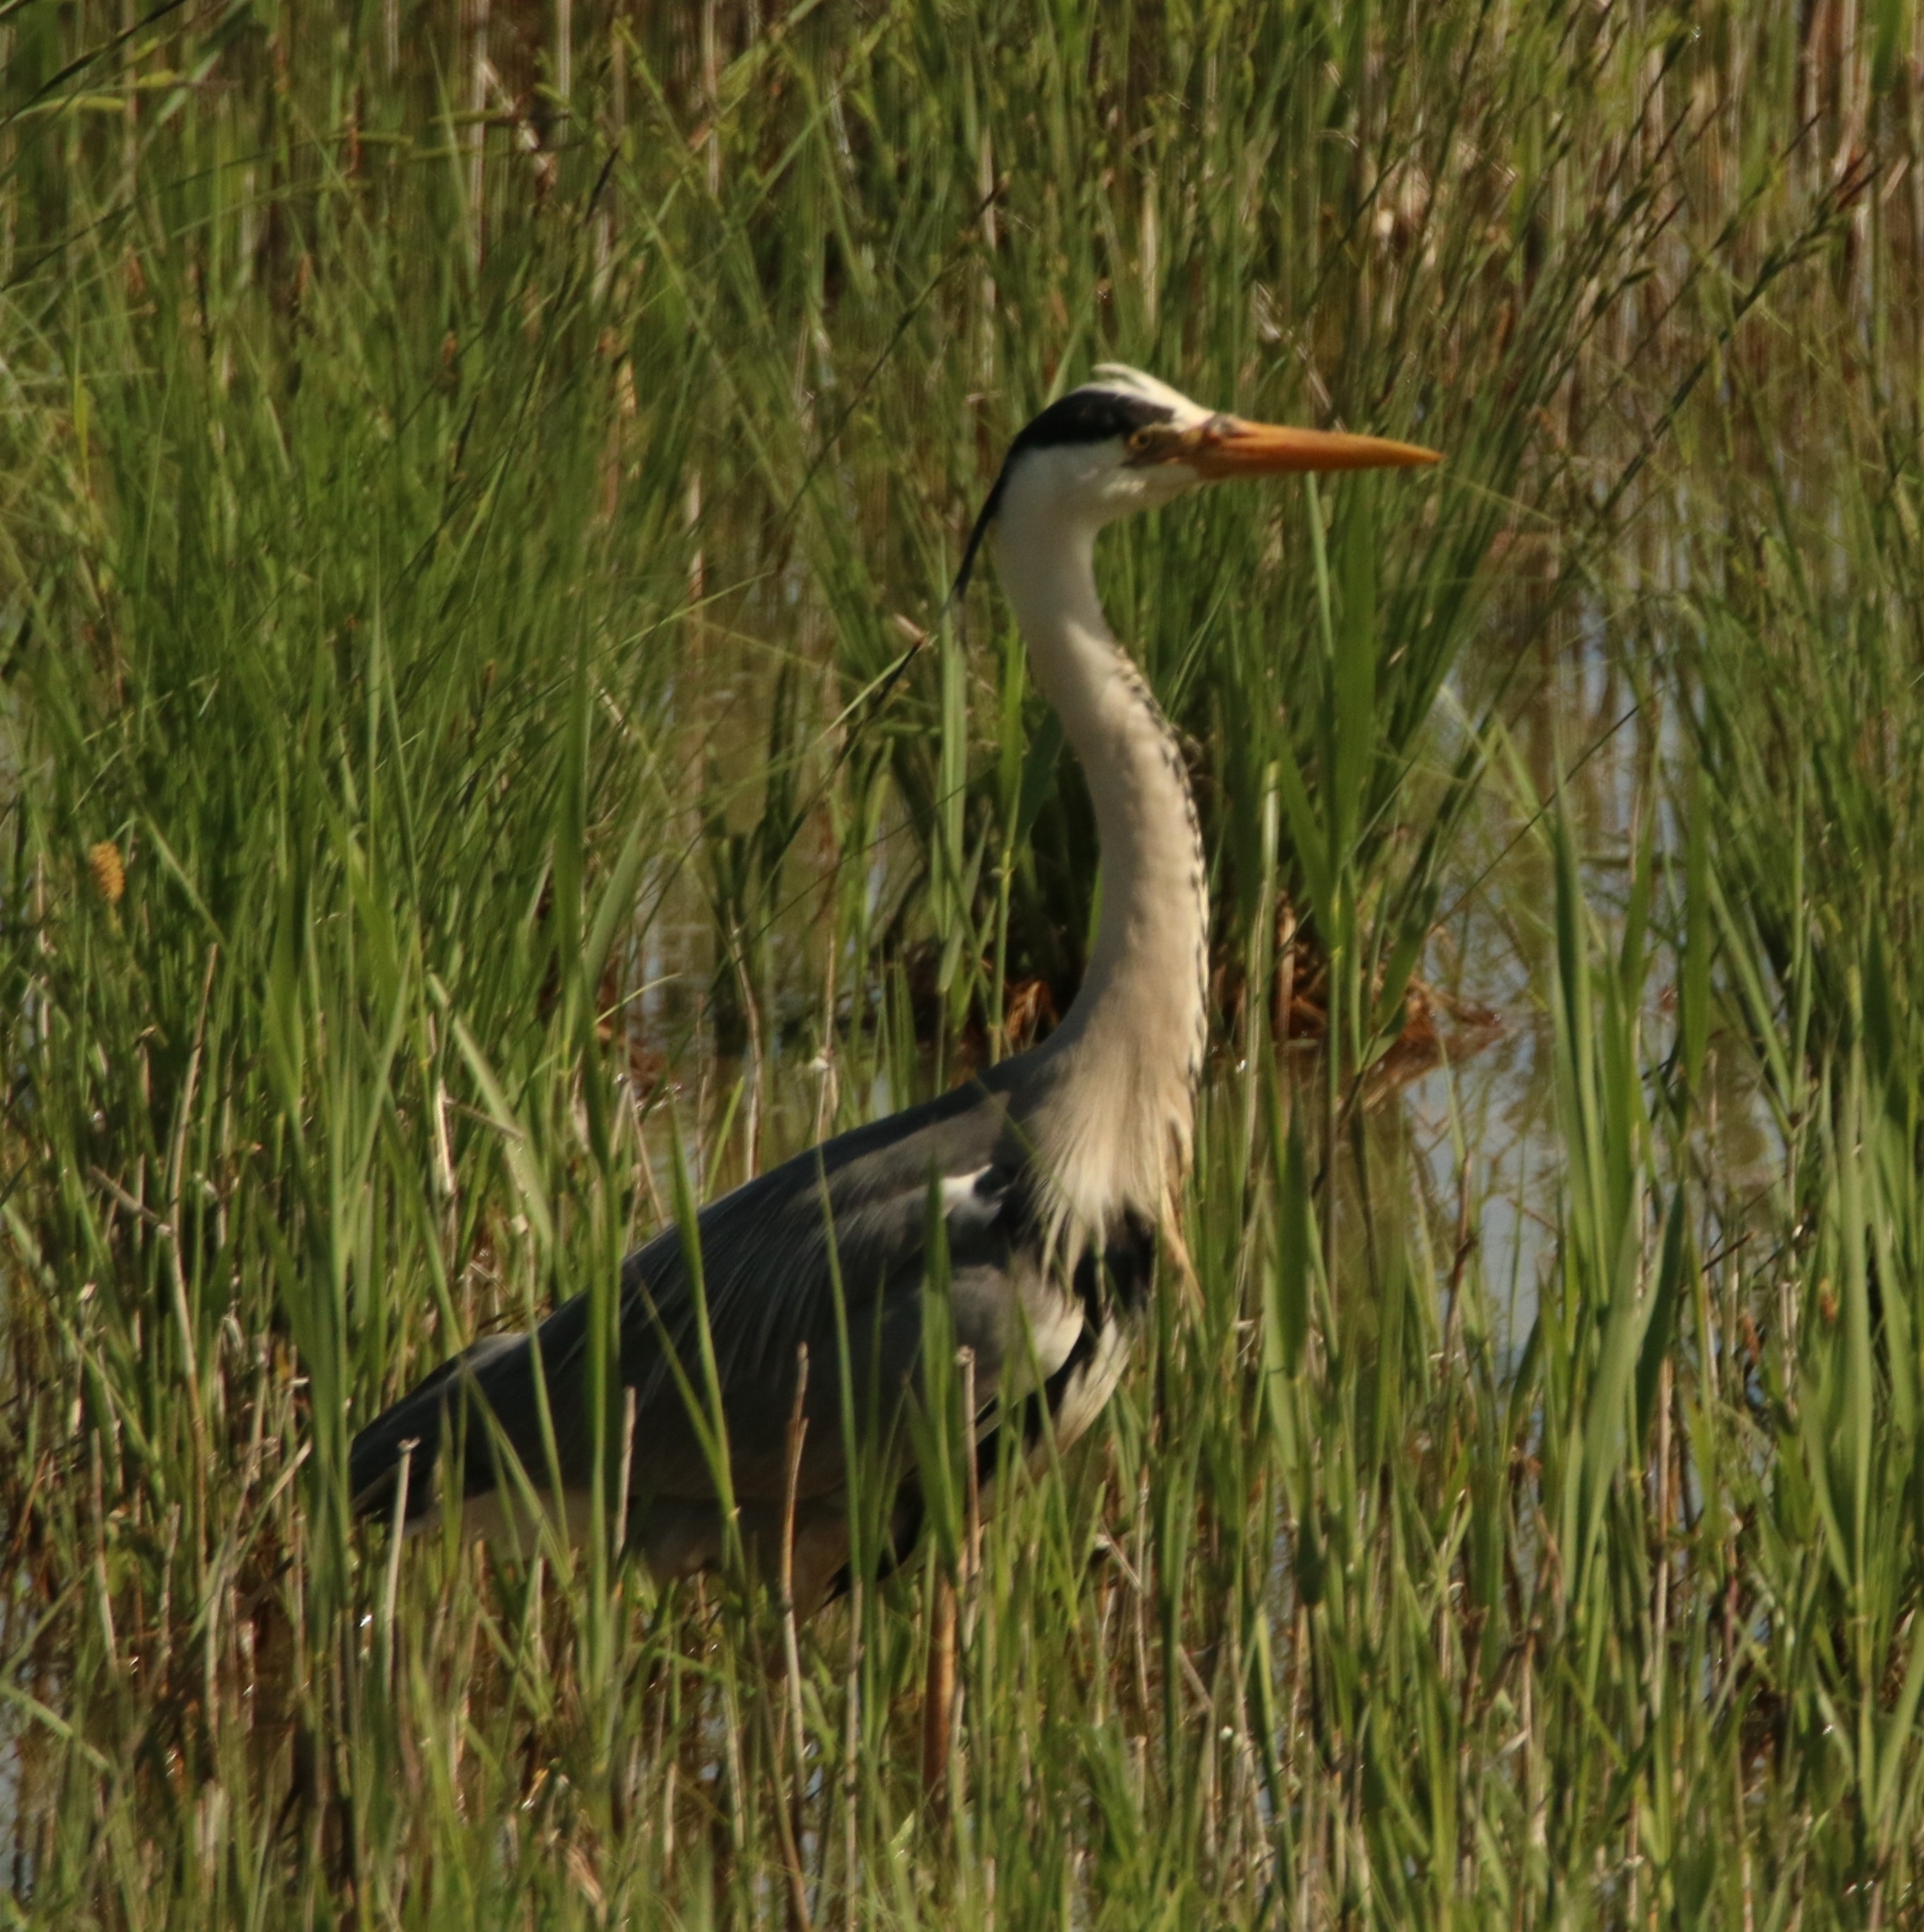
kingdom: Animalia
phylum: Chordata
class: Aves
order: Pelecaniformes
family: Ardeidae
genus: Ardea
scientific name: Ardea cinerea
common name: Grey heron
